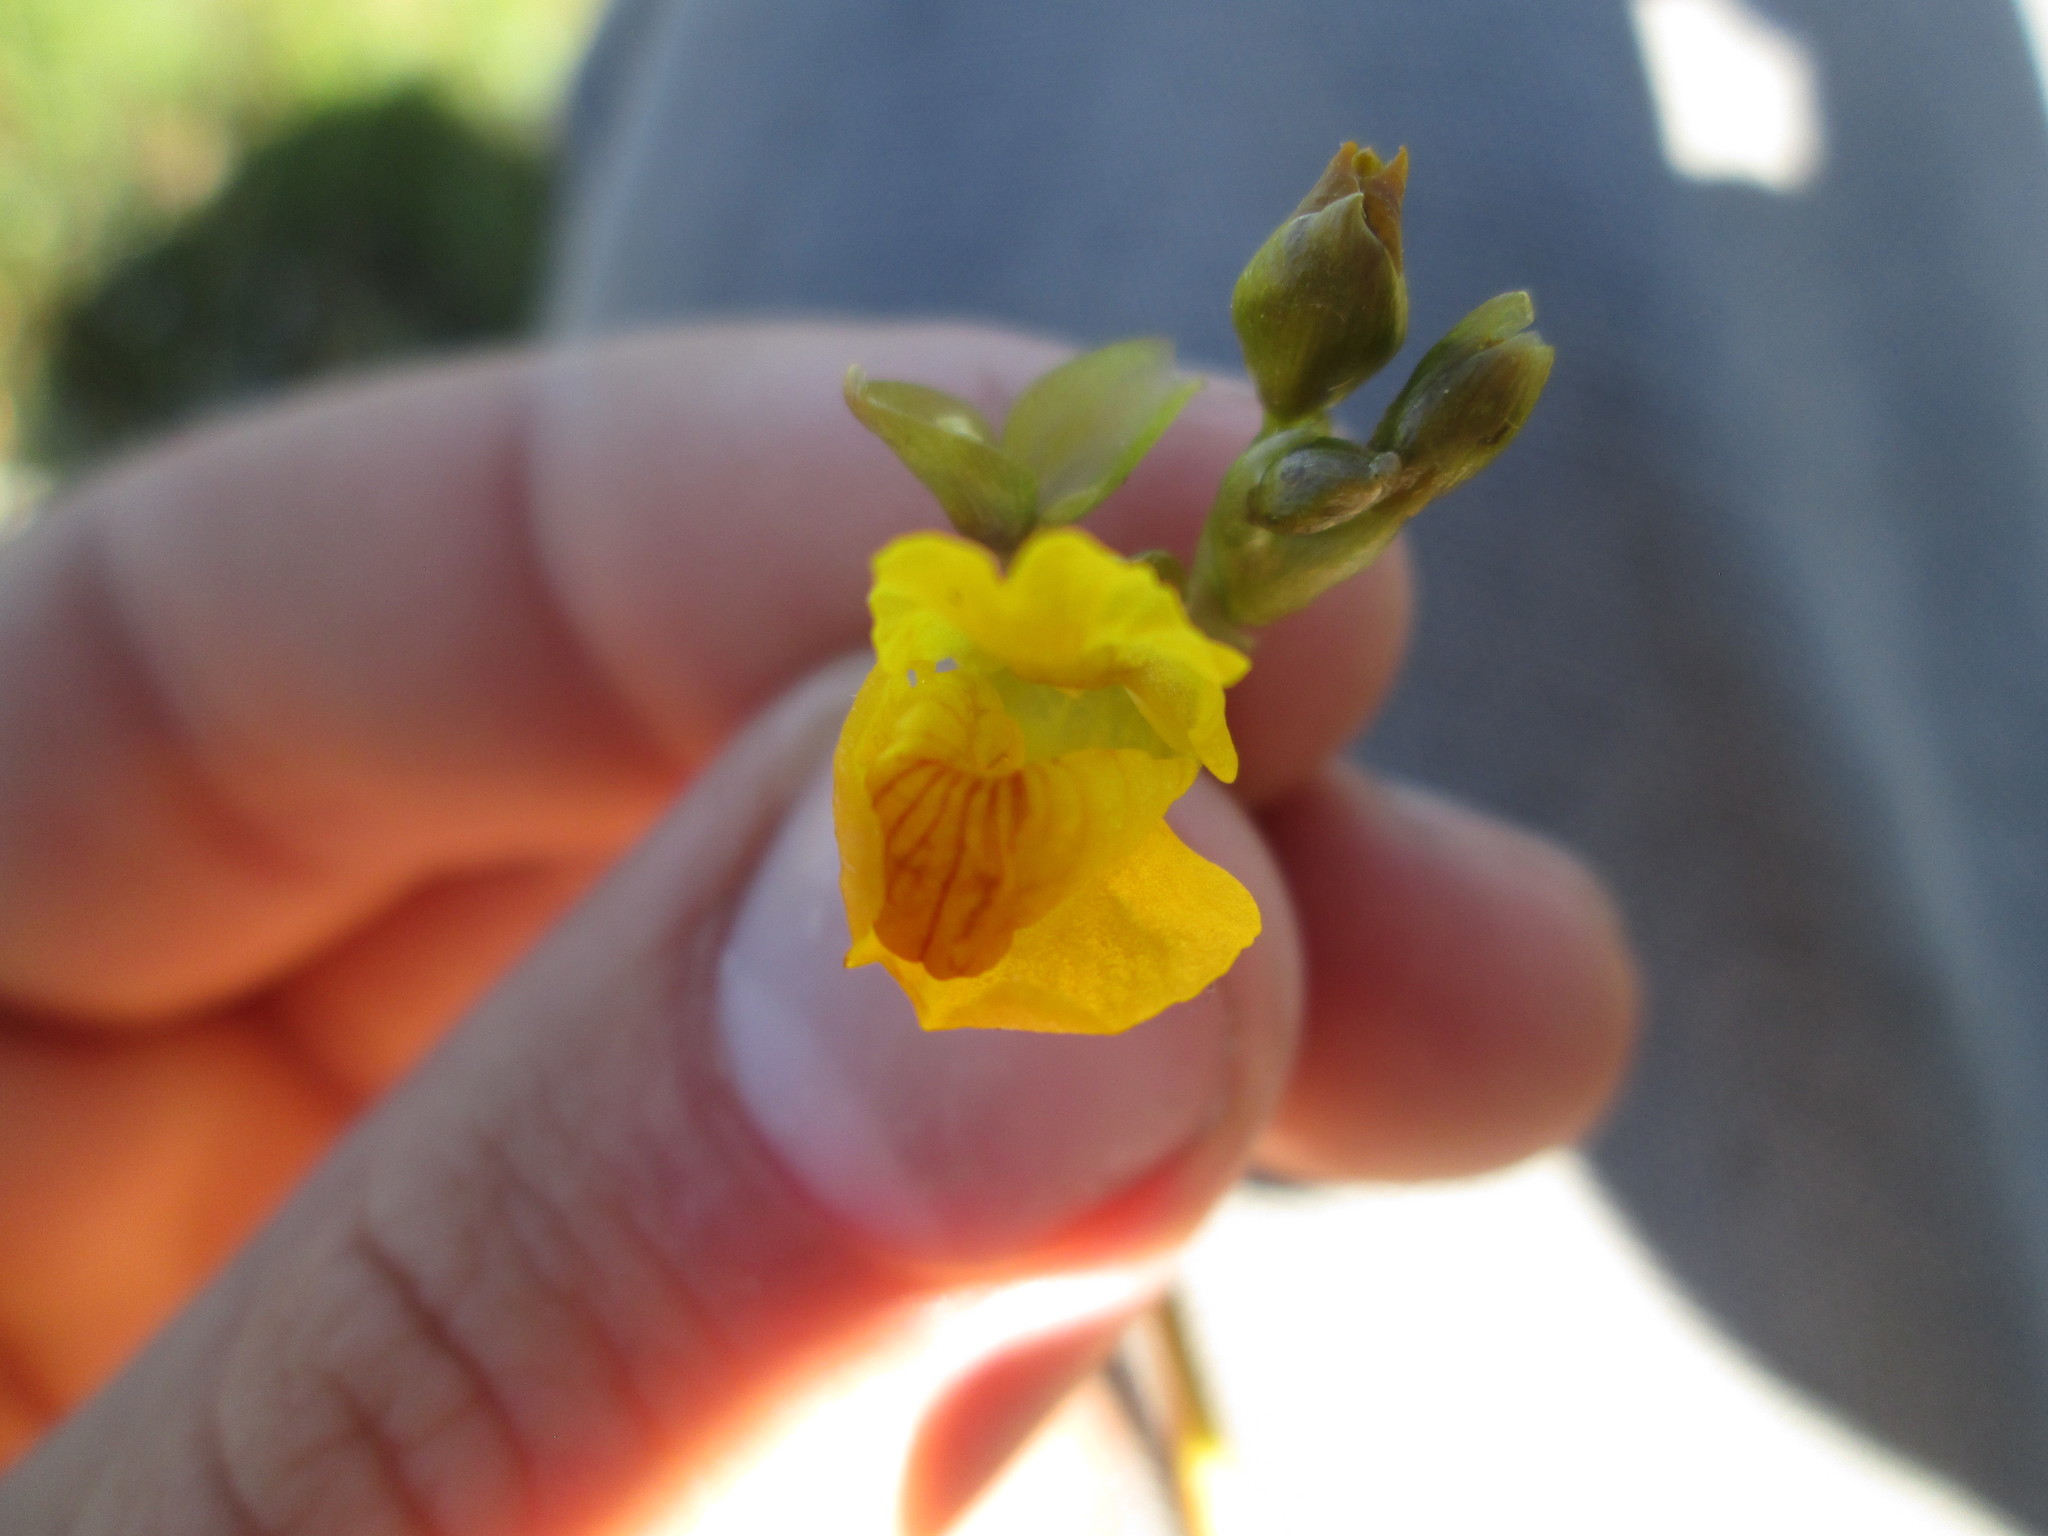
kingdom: Plantae
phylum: Tracheophyta
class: Magnoliopsida
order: Lamiales
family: Lentibulariaceae
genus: Utricularia
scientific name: Utricularia macrorhiza
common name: Common bladderwort
